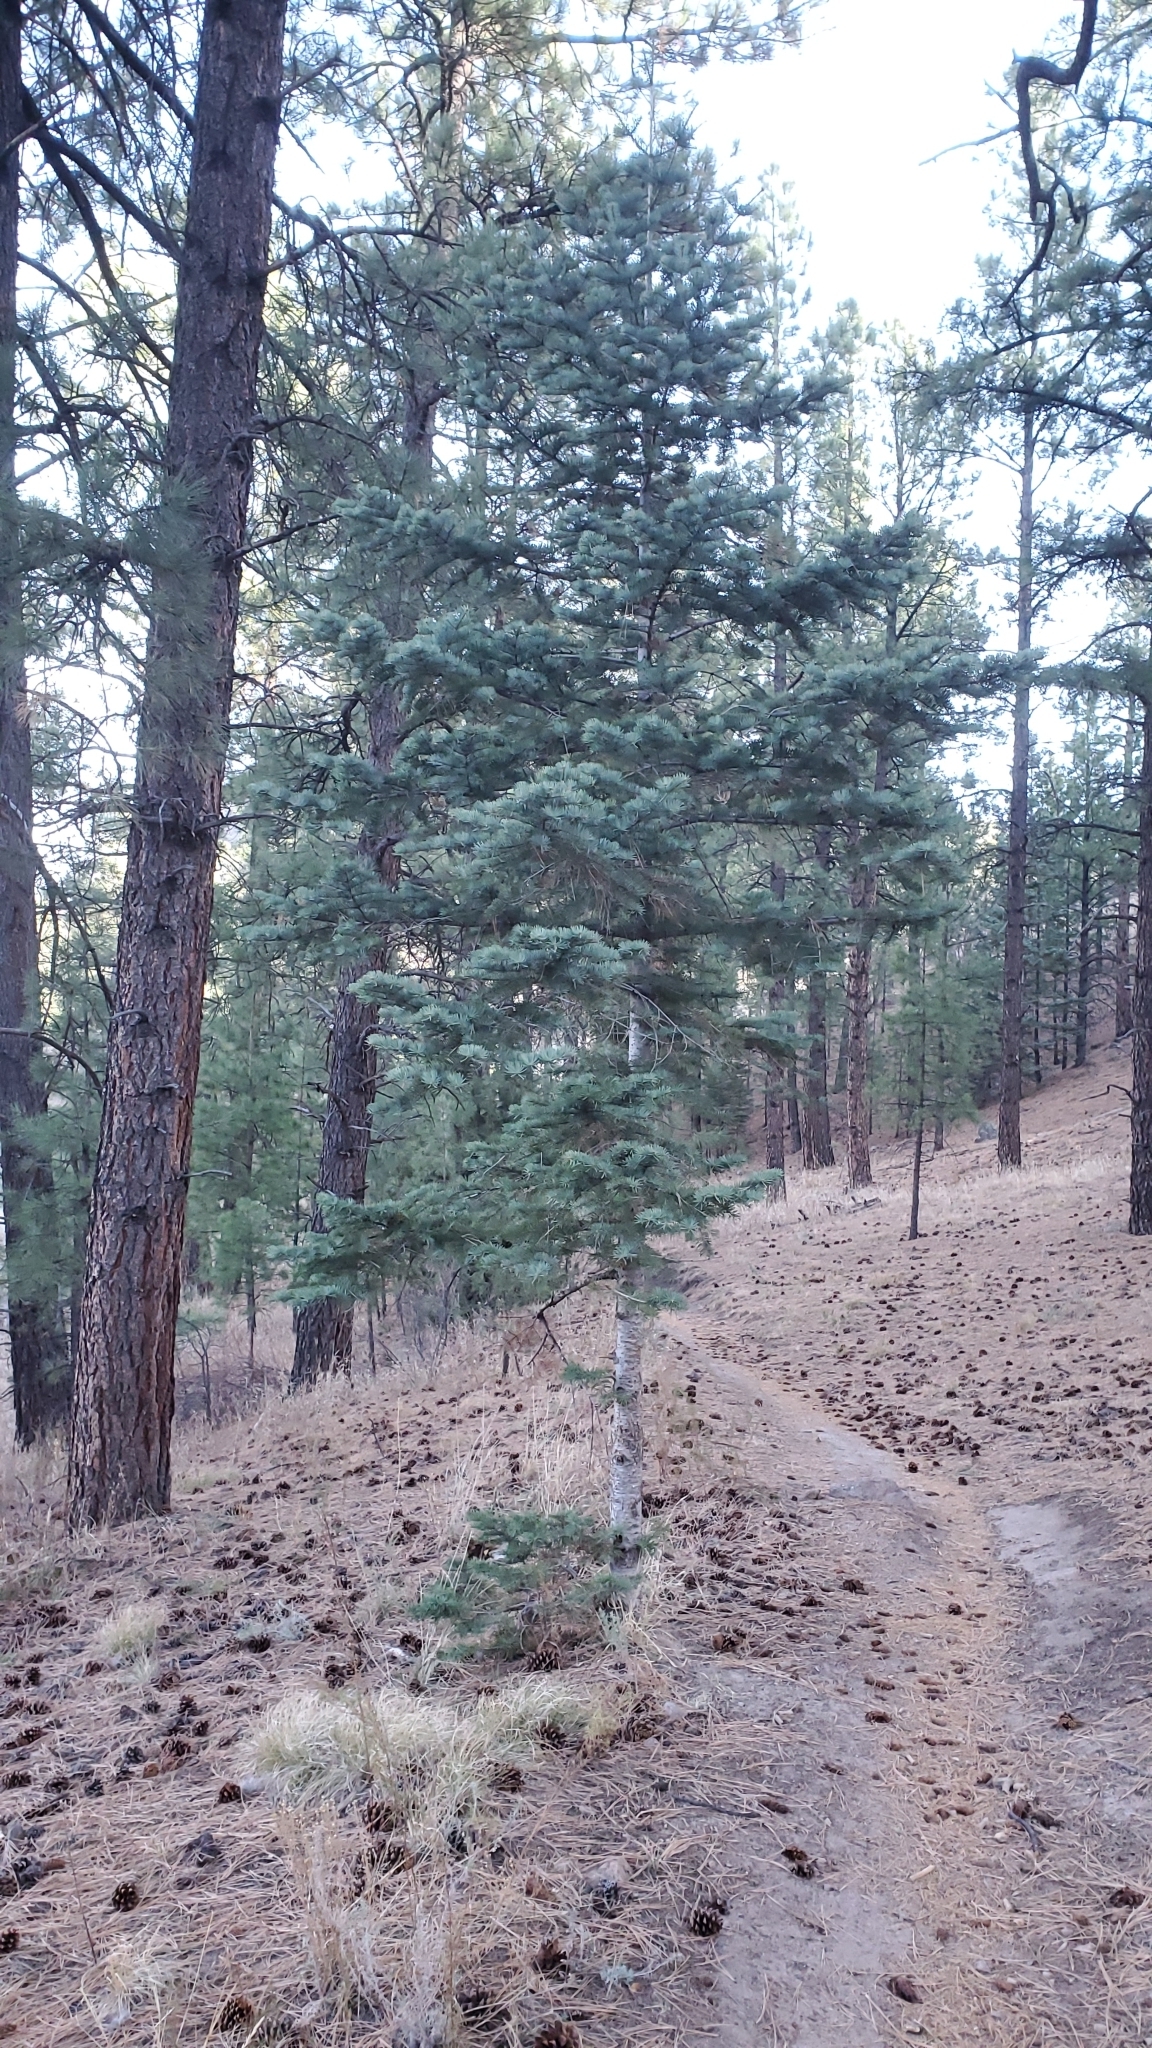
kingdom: Plantae
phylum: Tracheophyta
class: Pinopsida
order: Pinales
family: Pinaceae
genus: Abies
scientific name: Abies concolor
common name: Colorado fir
